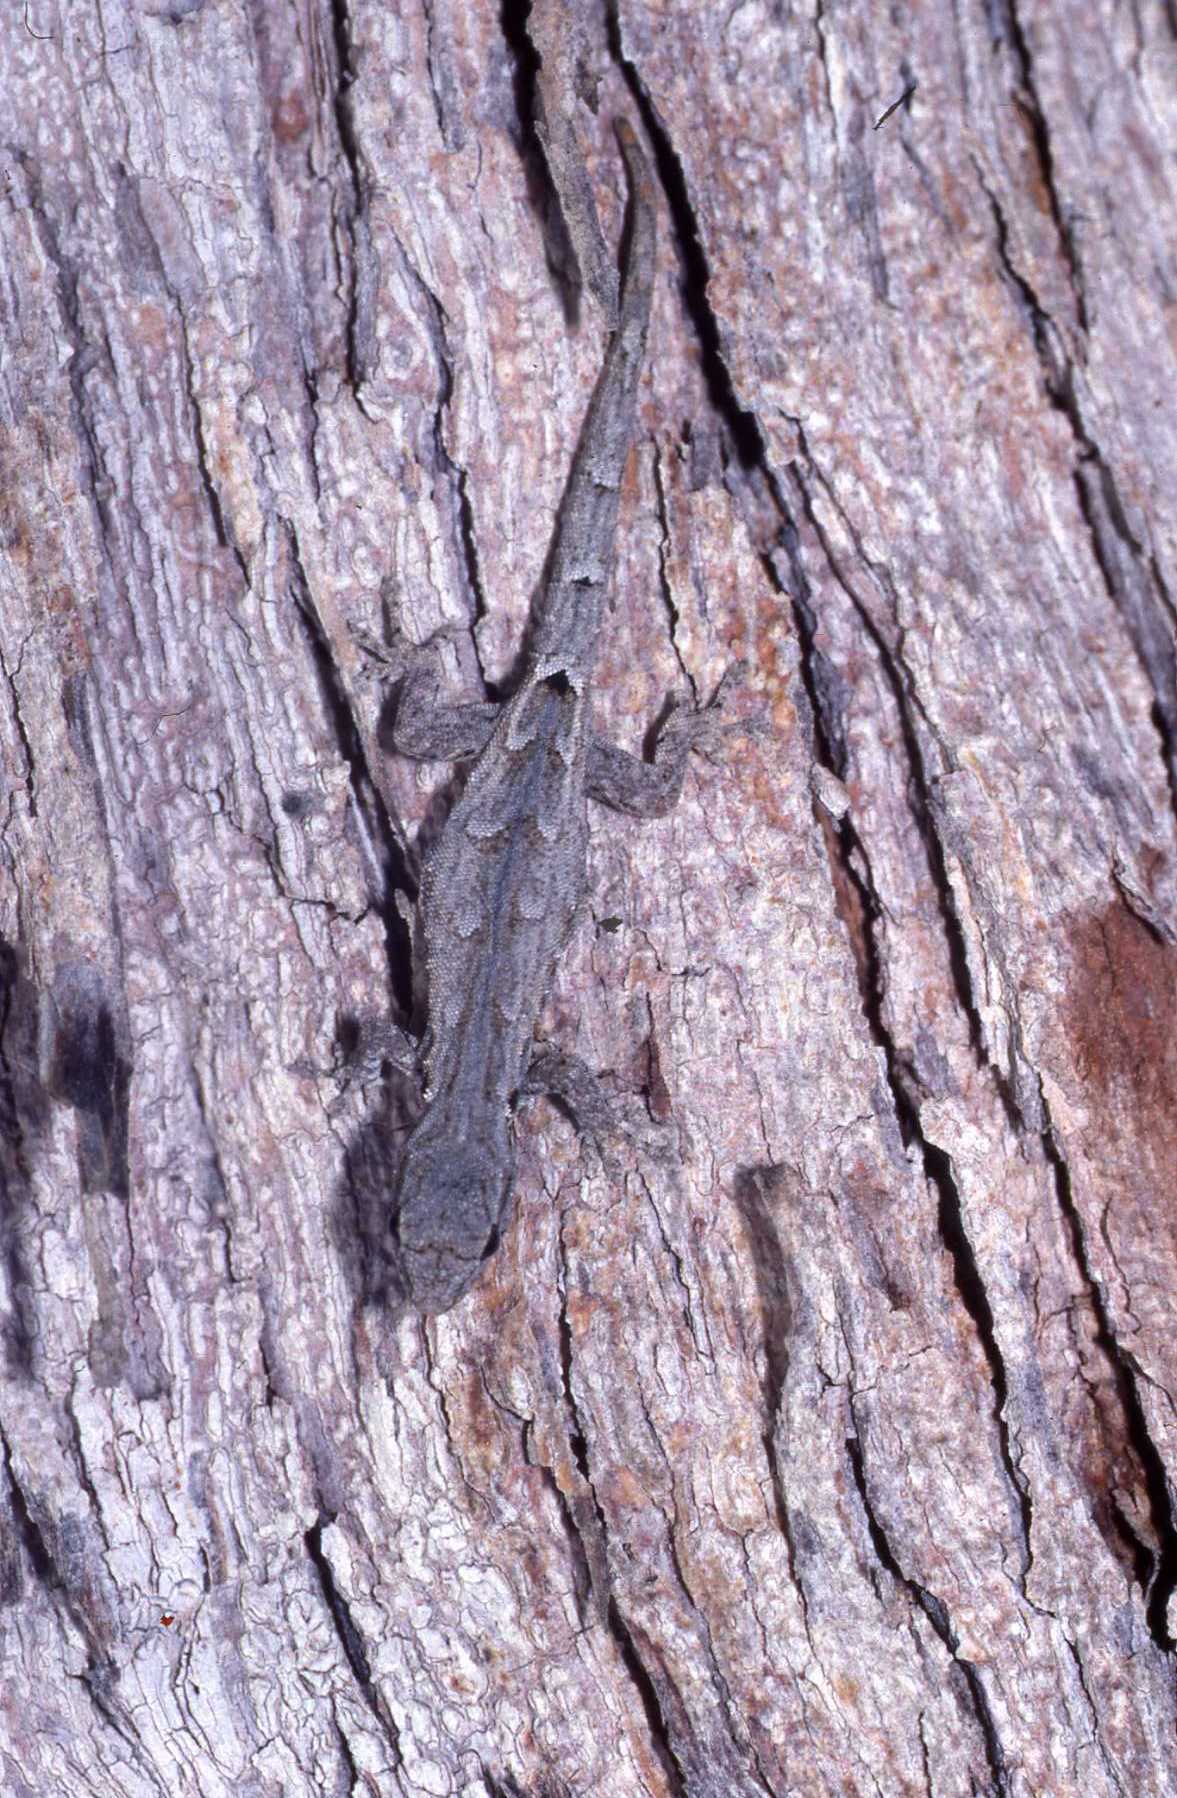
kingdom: Animalia
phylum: Chordata
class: Squamata
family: Gekkonidae
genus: Lygodactylus
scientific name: Lygodactylus verticillatus
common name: Mocquard's dwarf gecko
